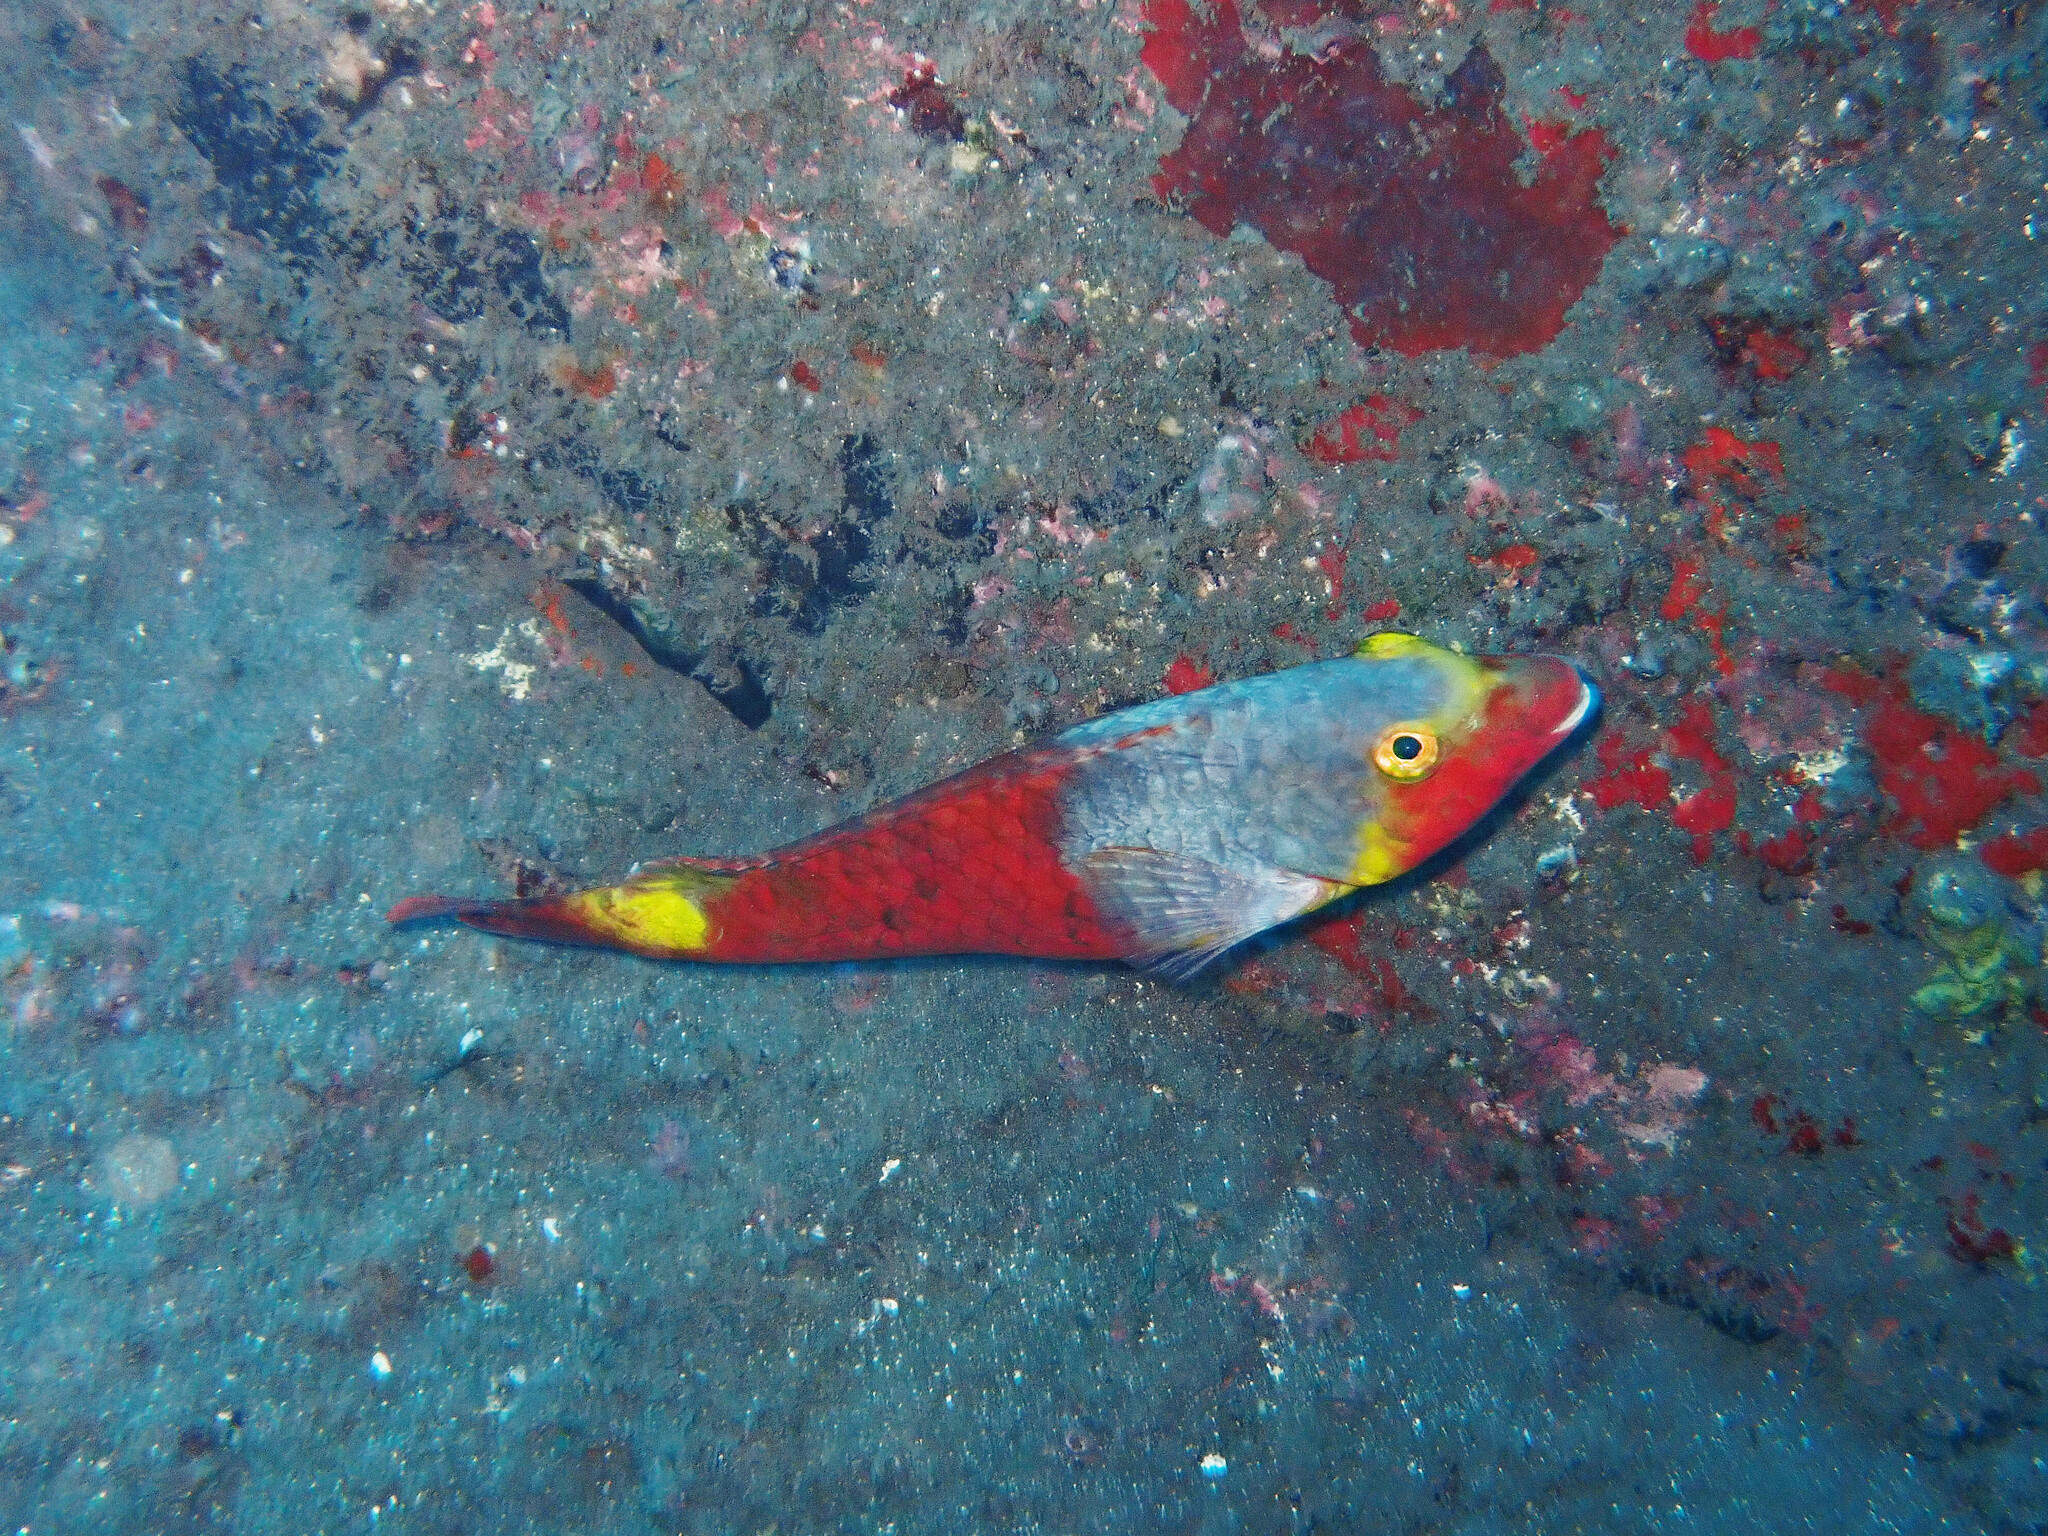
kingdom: Animalia
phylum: Chordata
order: Perciformes
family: Scaridae
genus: Sparisoma
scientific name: Sparisoma cretense
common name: Parrotfish
